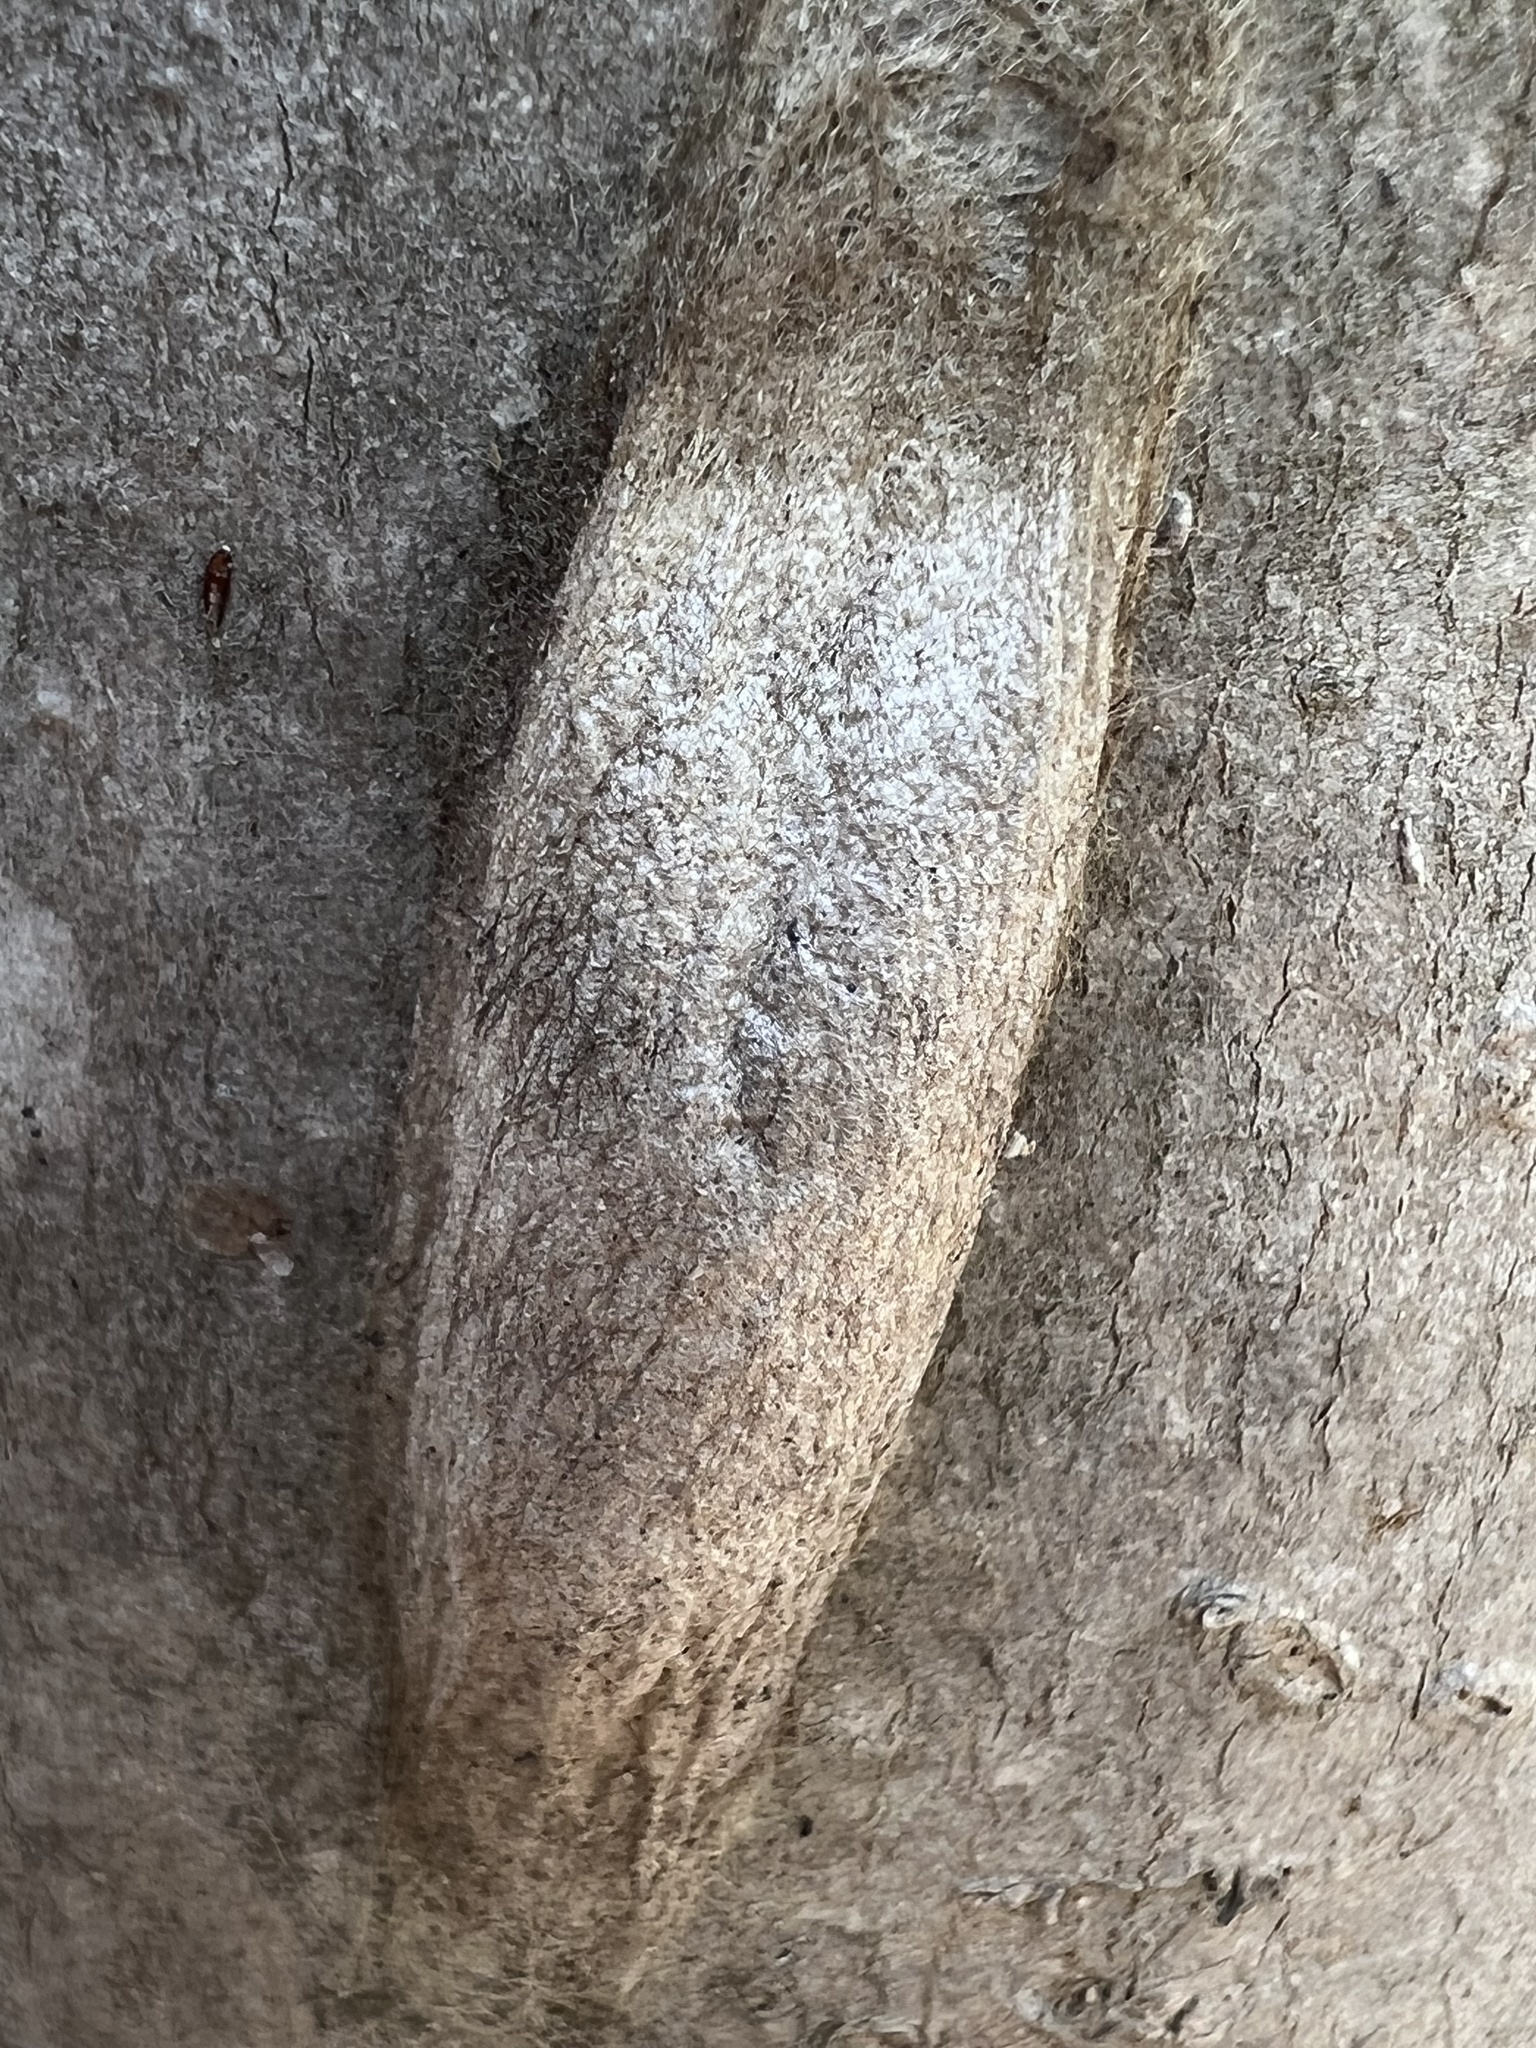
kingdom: Animalia
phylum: Arthropoda
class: Insecta
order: Lepidoptera
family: Saturniidae
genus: Hyalophora
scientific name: Hyalophora cecropia
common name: Cecropia silkmoth
